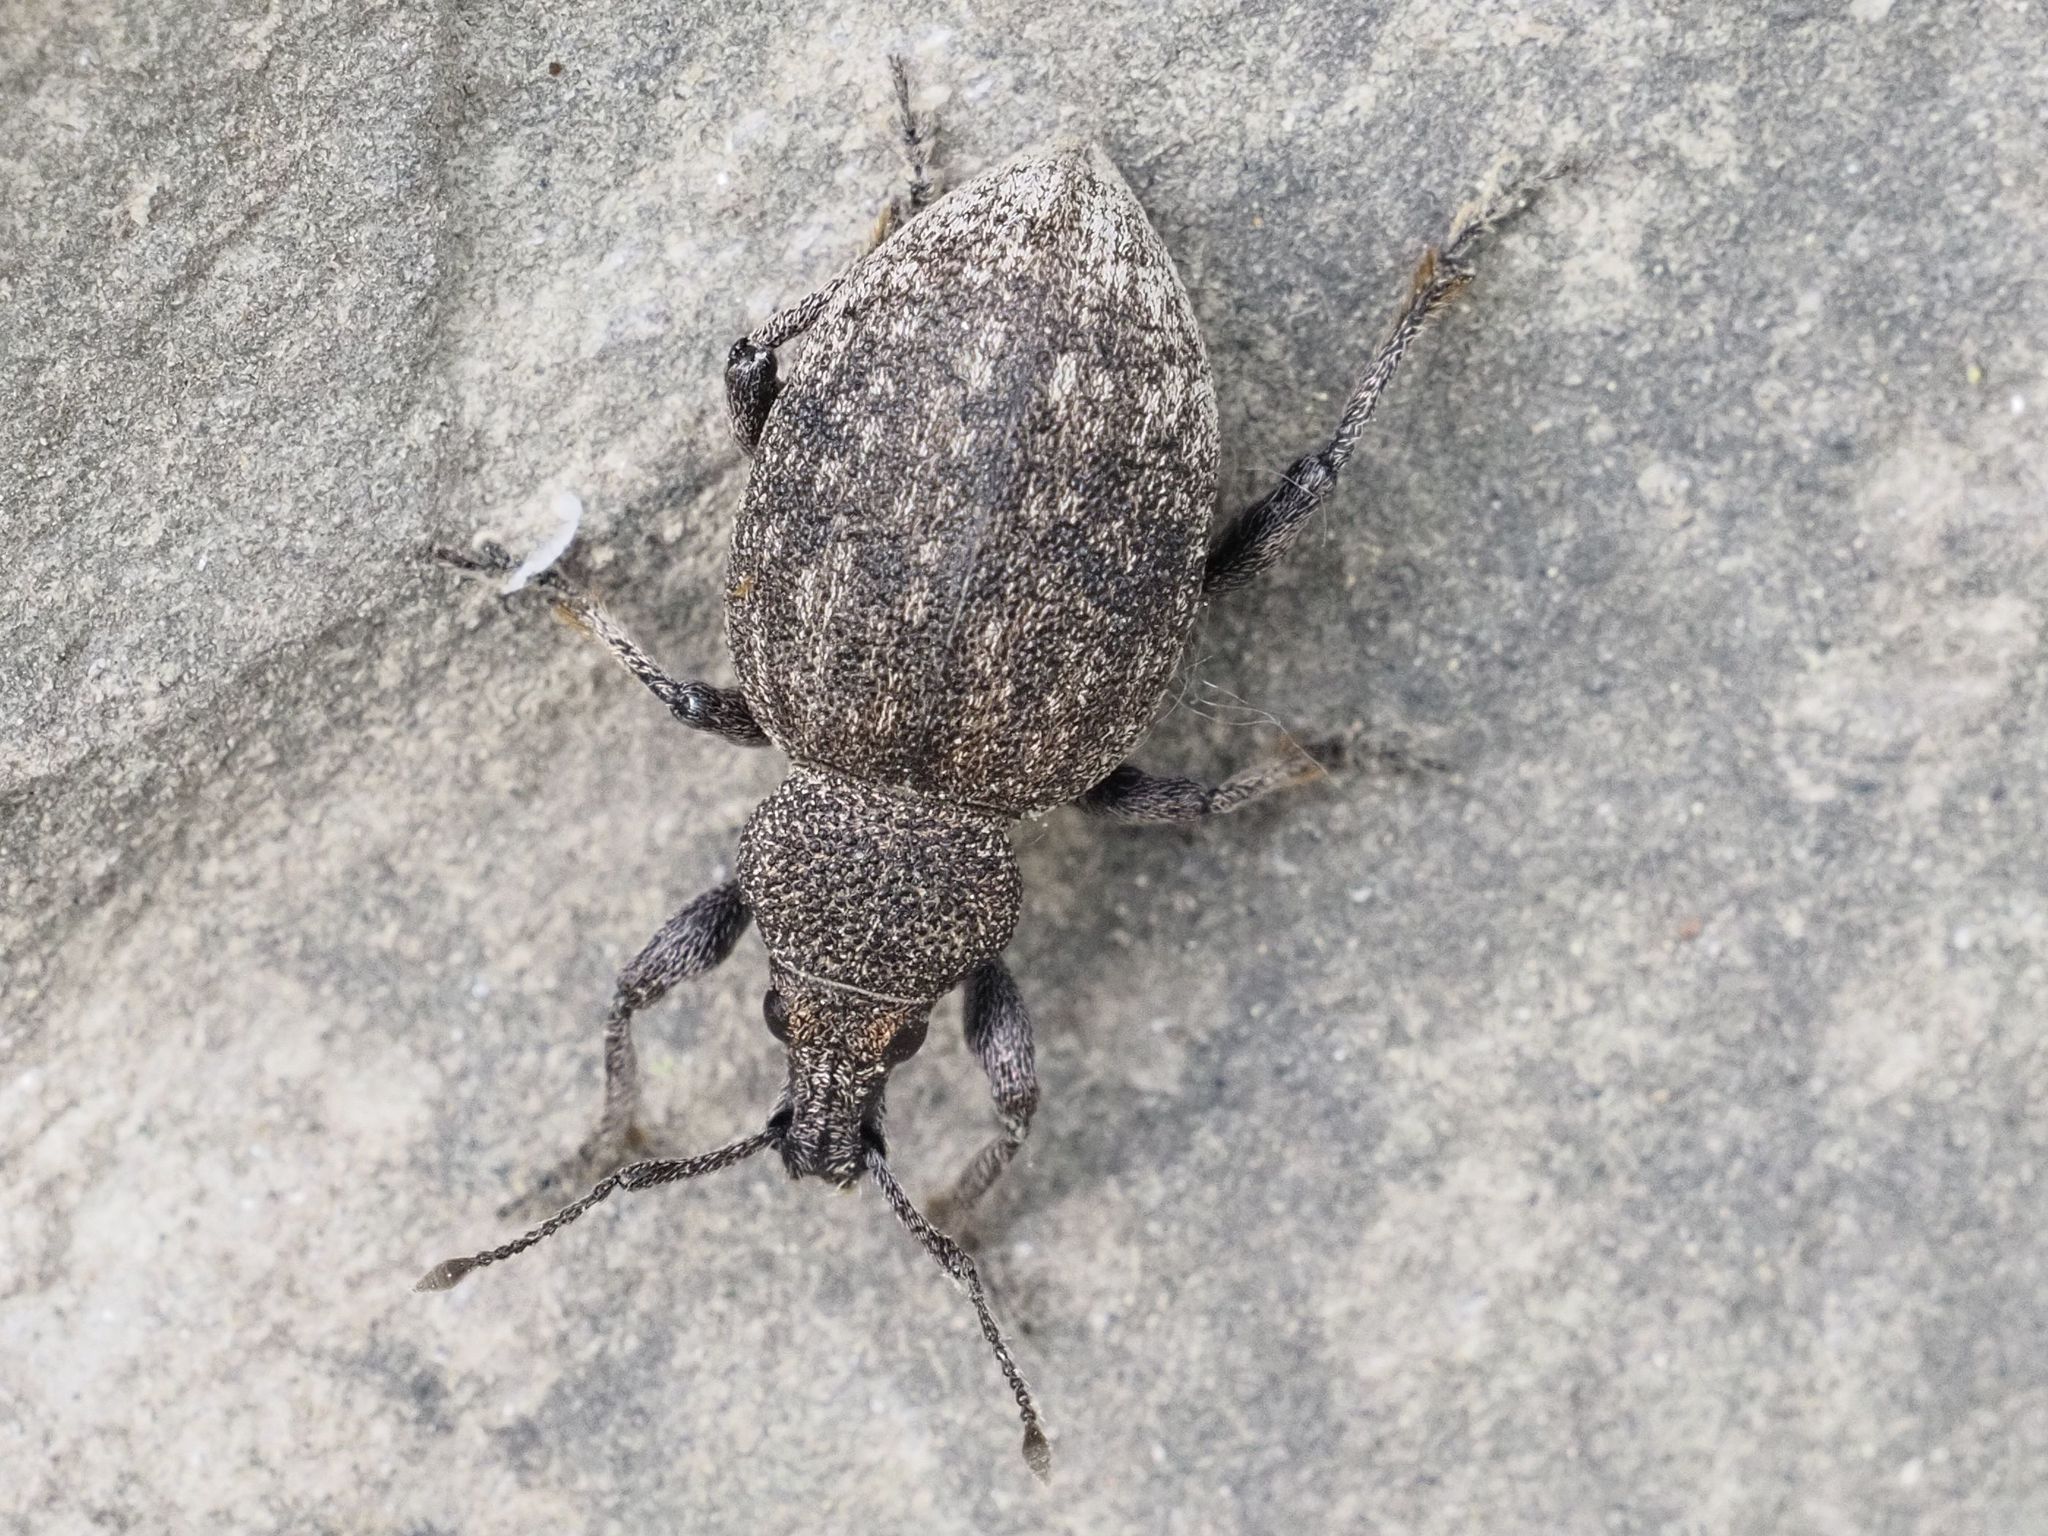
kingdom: Animalia
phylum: Arthropoda
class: Insecta
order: Coleoptera
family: Curculionidae
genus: Otiorhynchus
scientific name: Otiorhynchus ligustici
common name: Weevil
